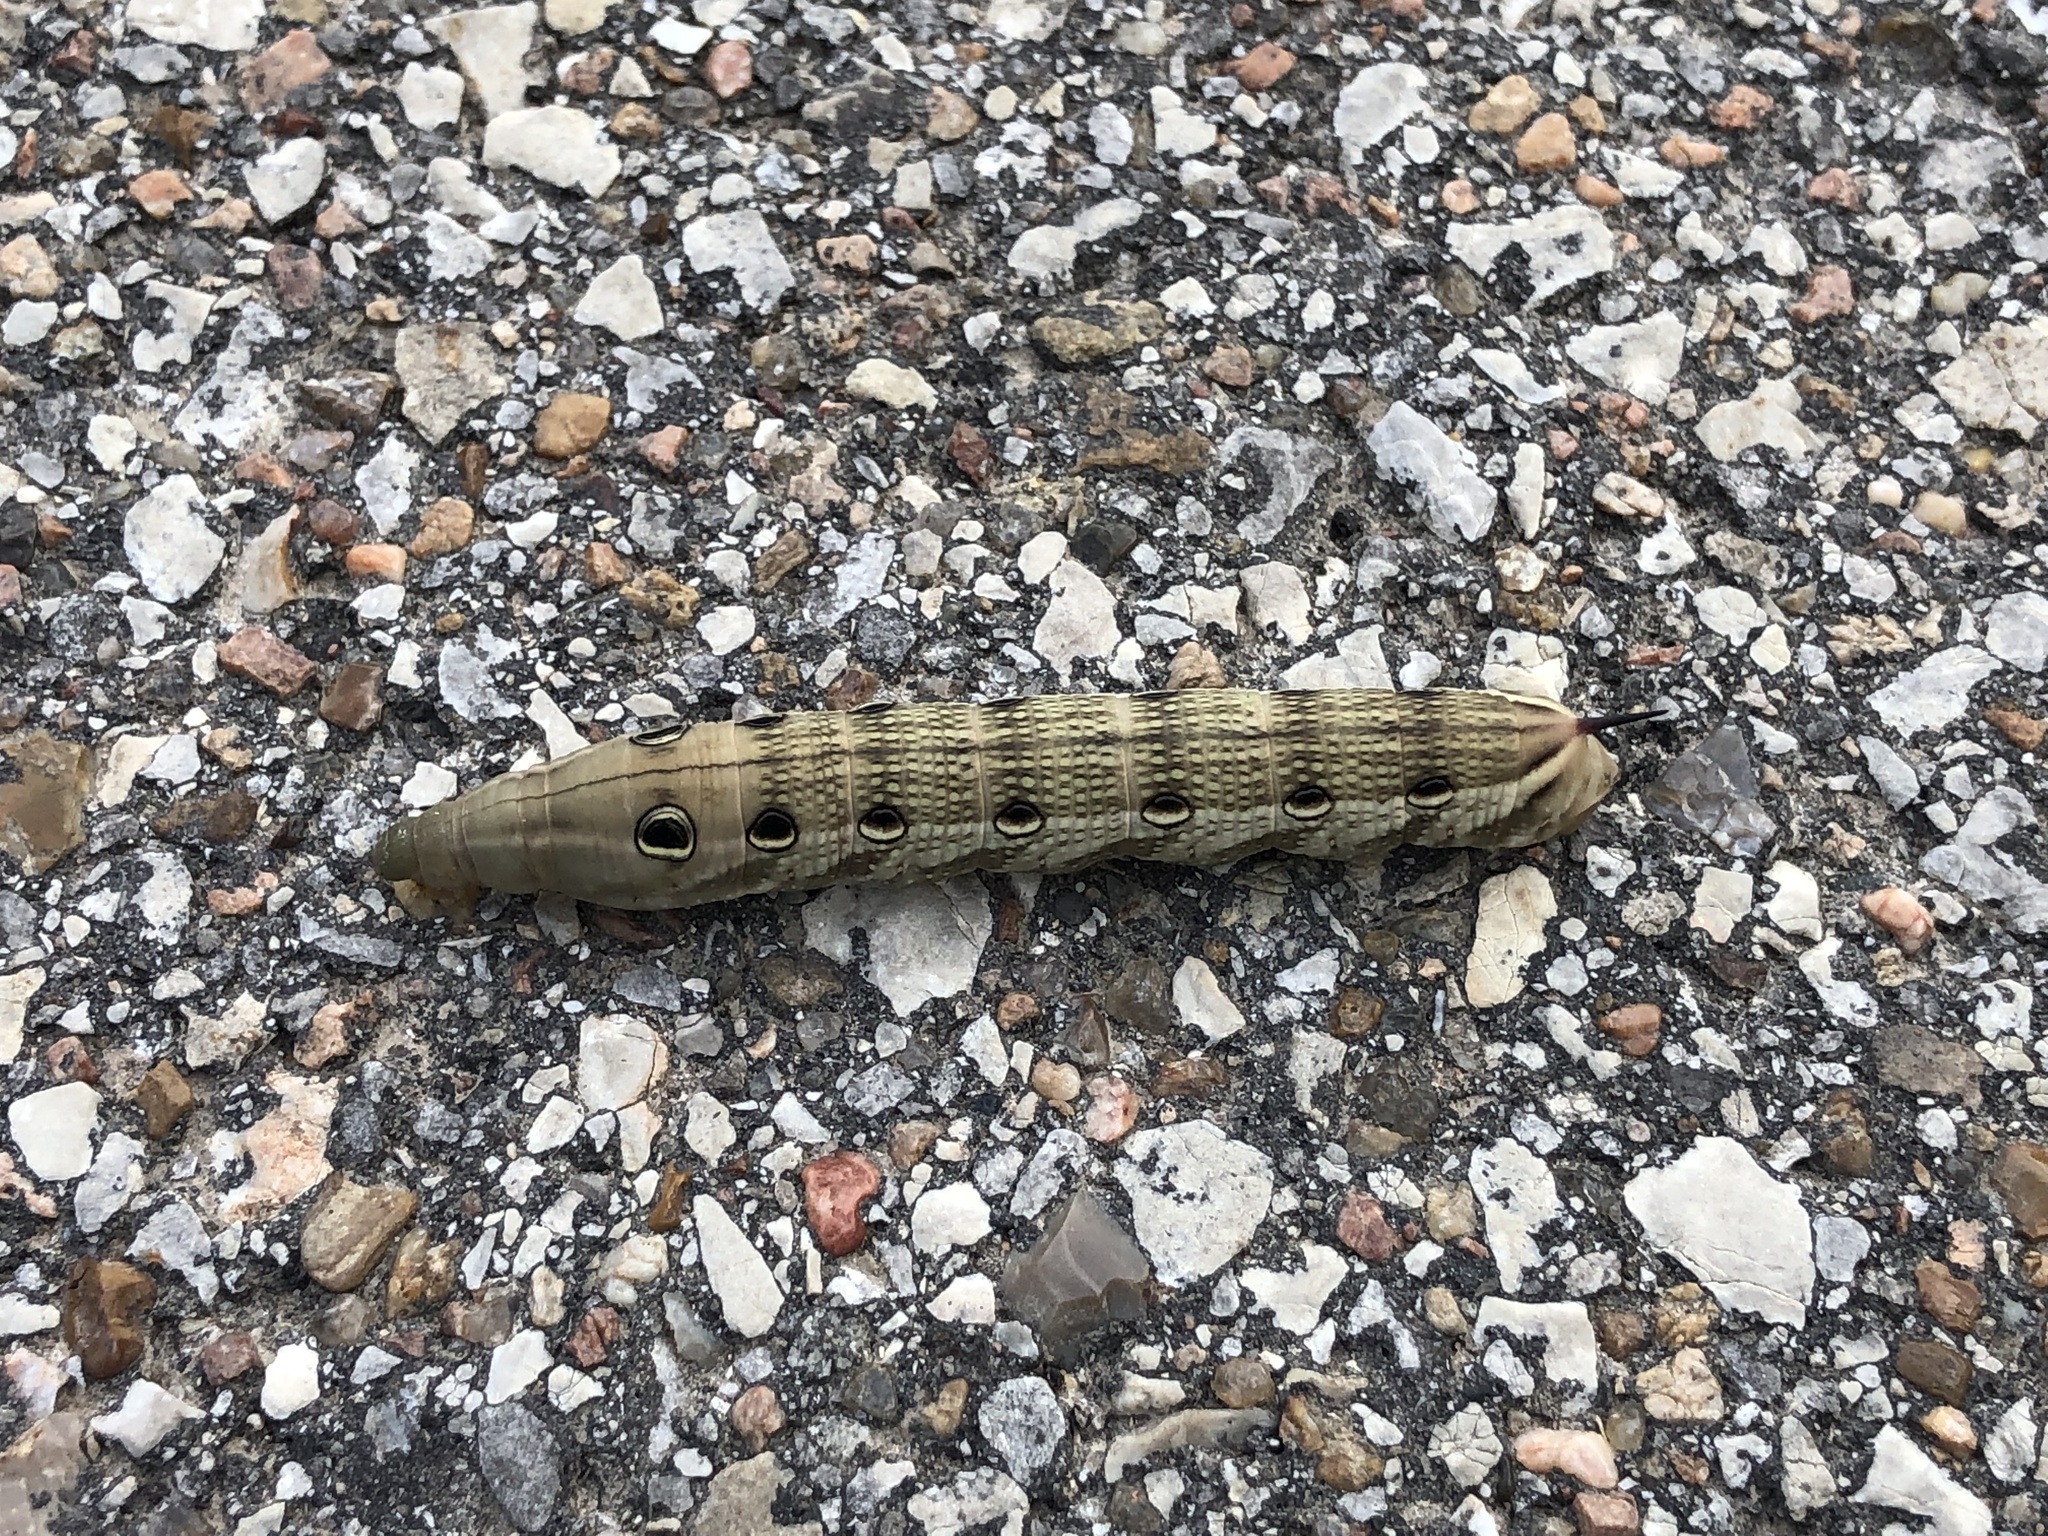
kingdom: Animalia
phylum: Arthropoda
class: Insecta
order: Lepidoptera
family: Sphingidae
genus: Xylophanes
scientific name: Xylophanes tersa
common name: Tersa sphinx
